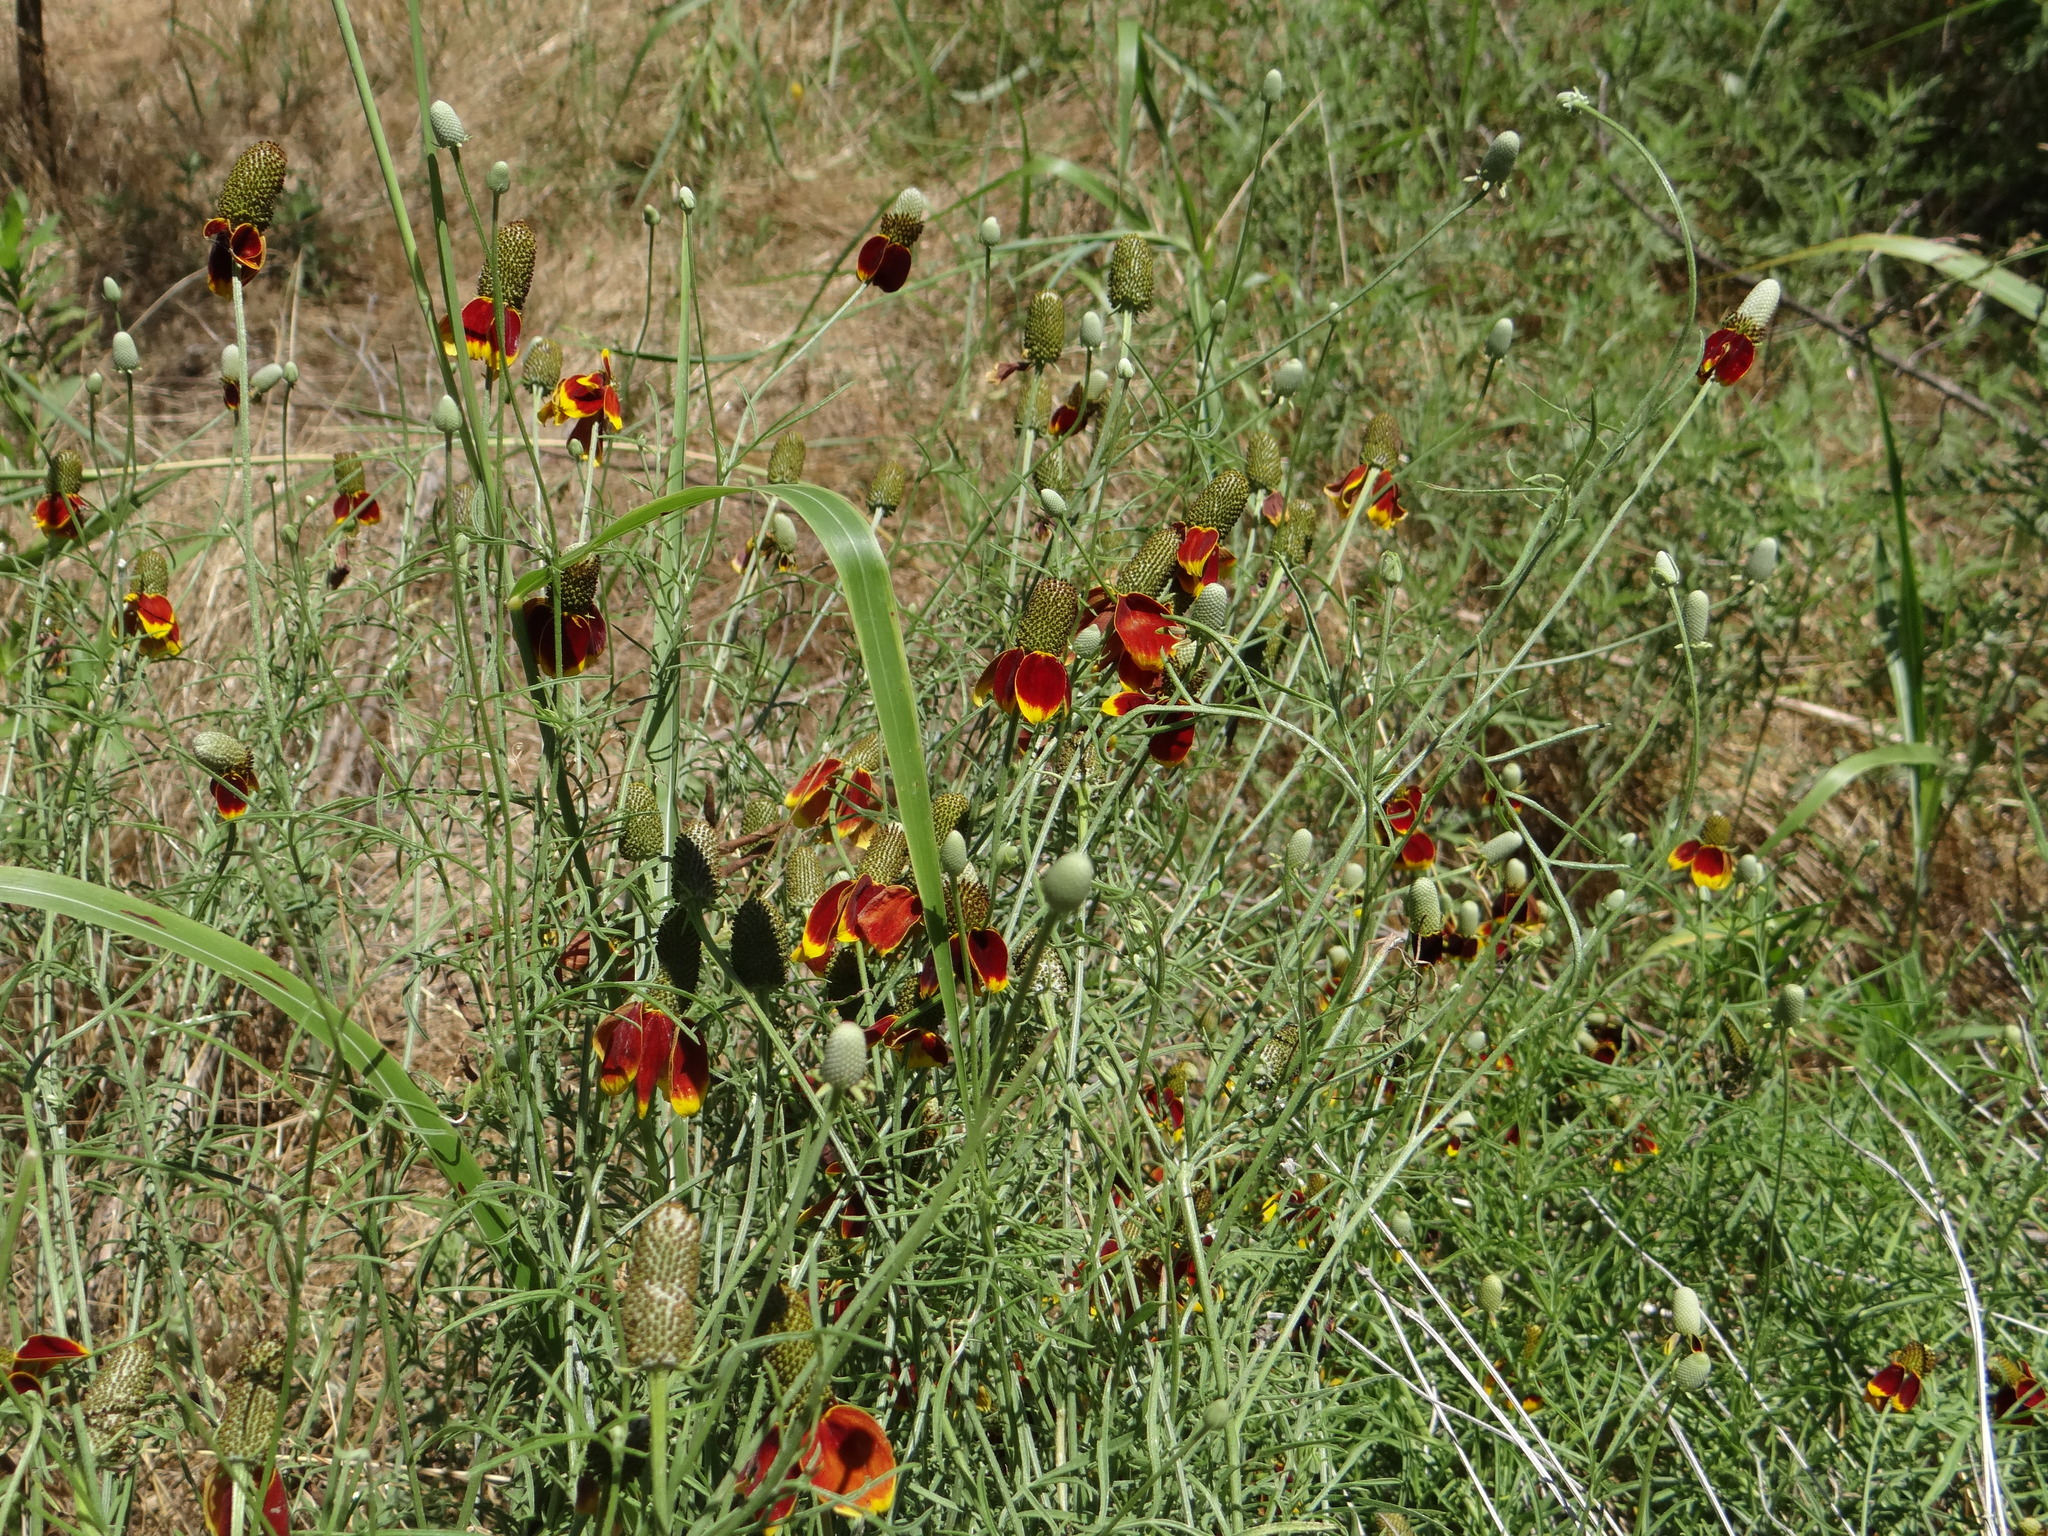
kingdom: Plantae
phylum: Tracheophyta
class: Magnoliopsida
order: Asterales
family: Asteraceae
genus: Ratibida
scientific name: Ratibida columnifera
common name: Prairie coneflower
